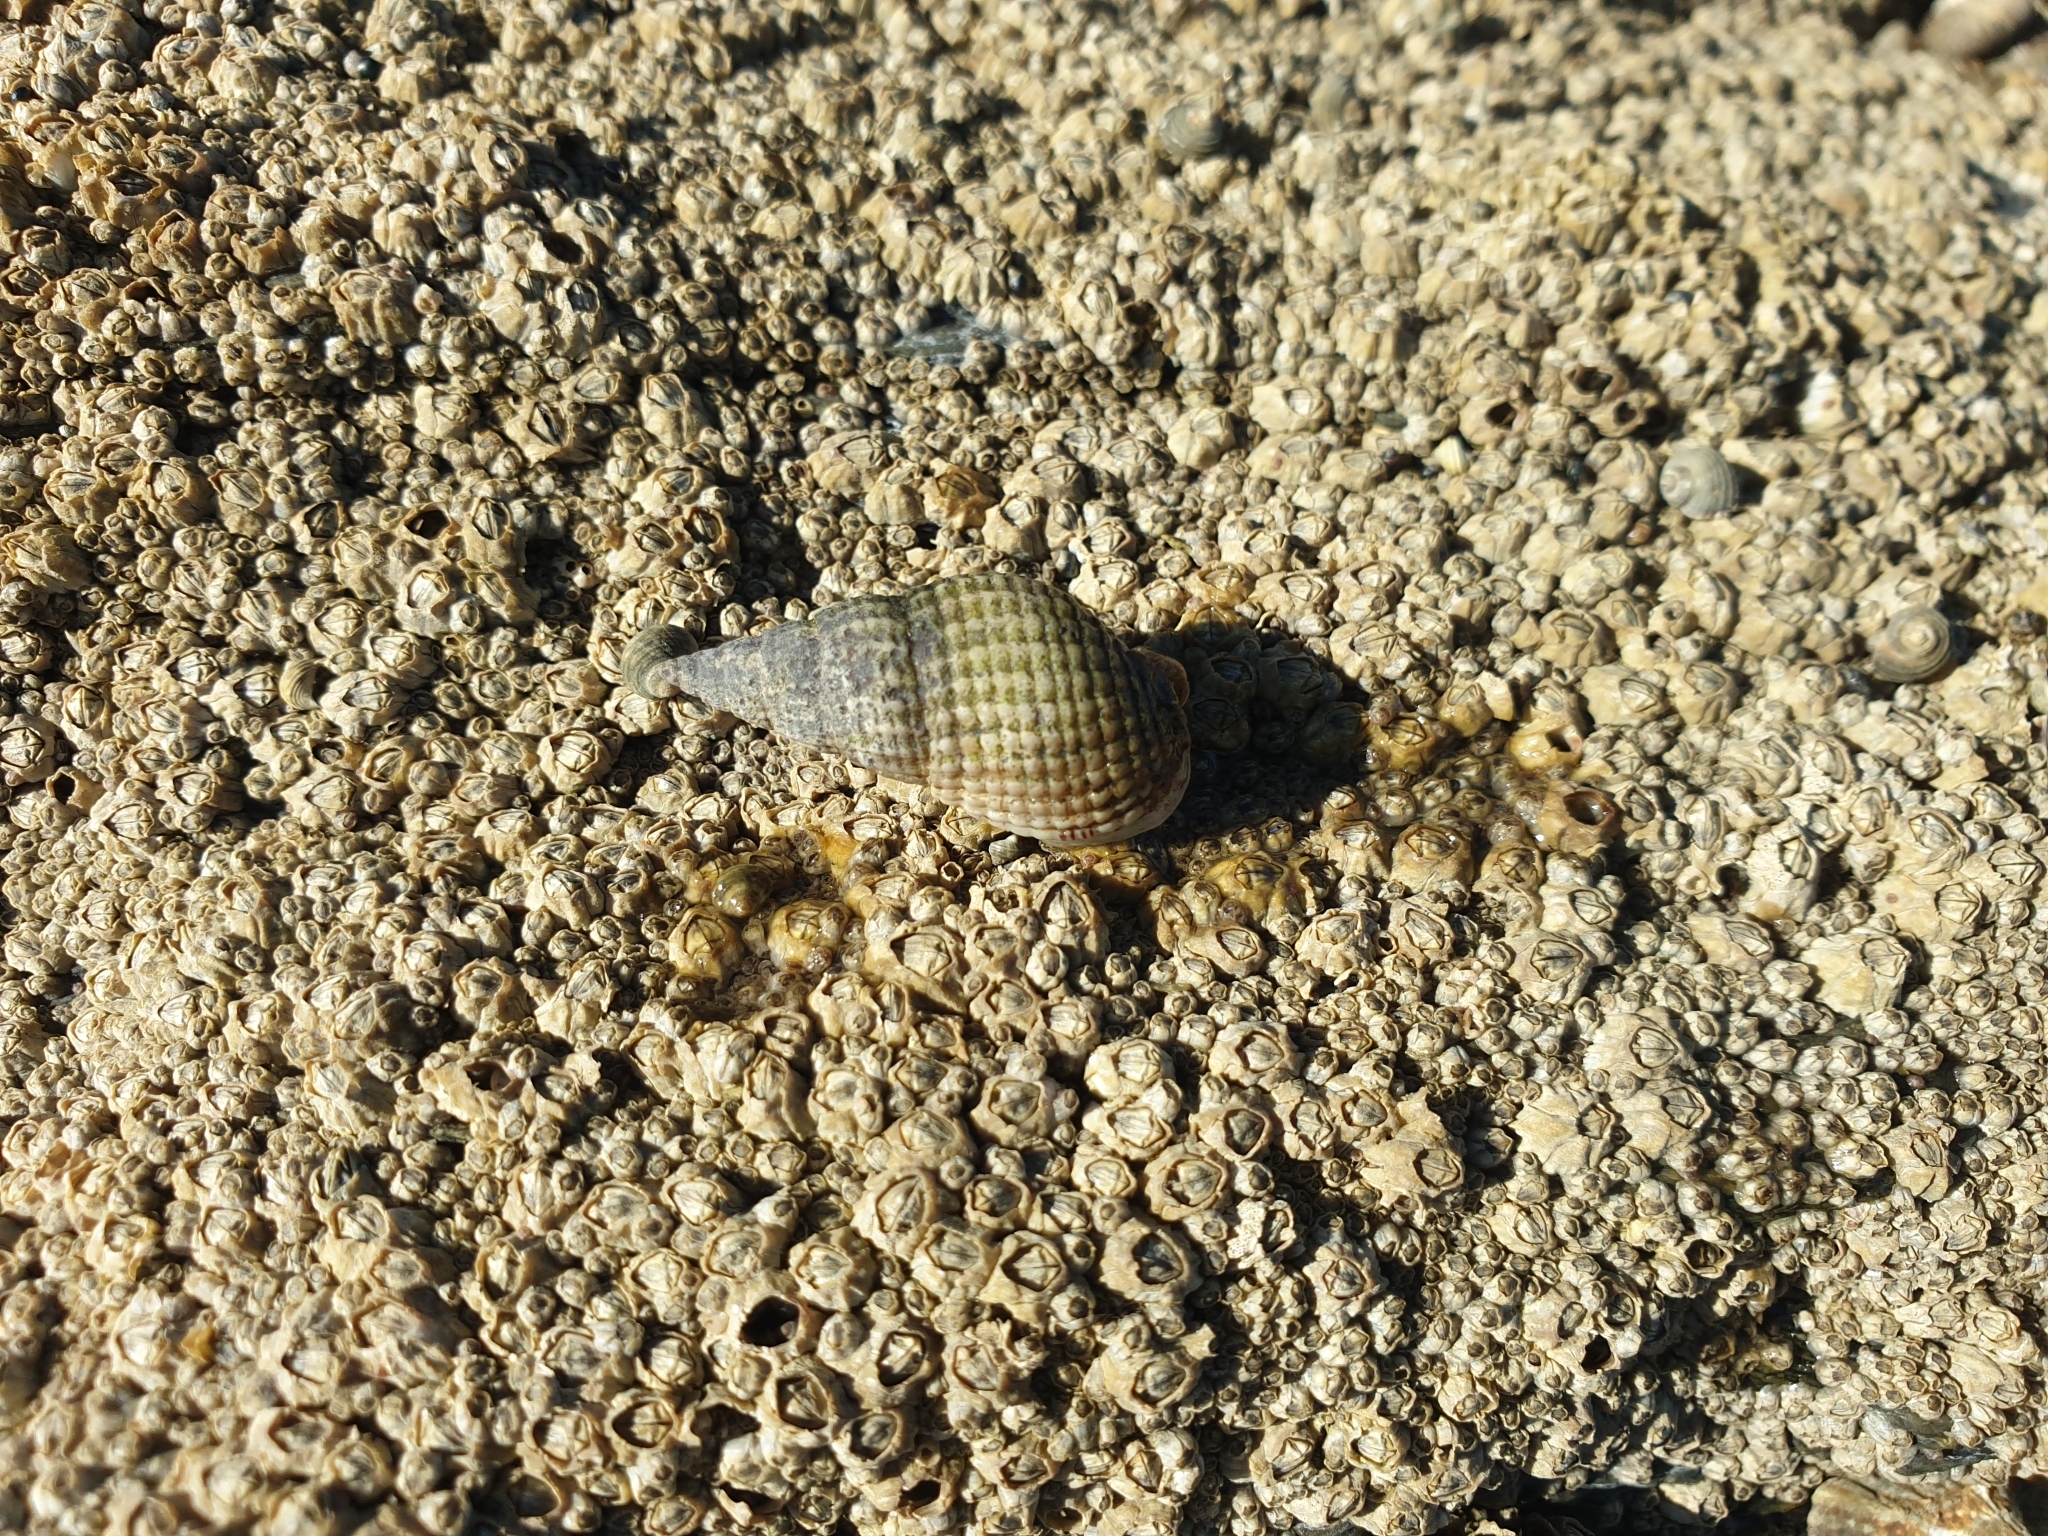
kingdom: Animalia
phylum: Mollusca
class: Gastropoda
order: Neogastropoda
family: Nassariidae
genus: Tritia
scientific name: Tritia reticulata
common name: Netted dog whelk
